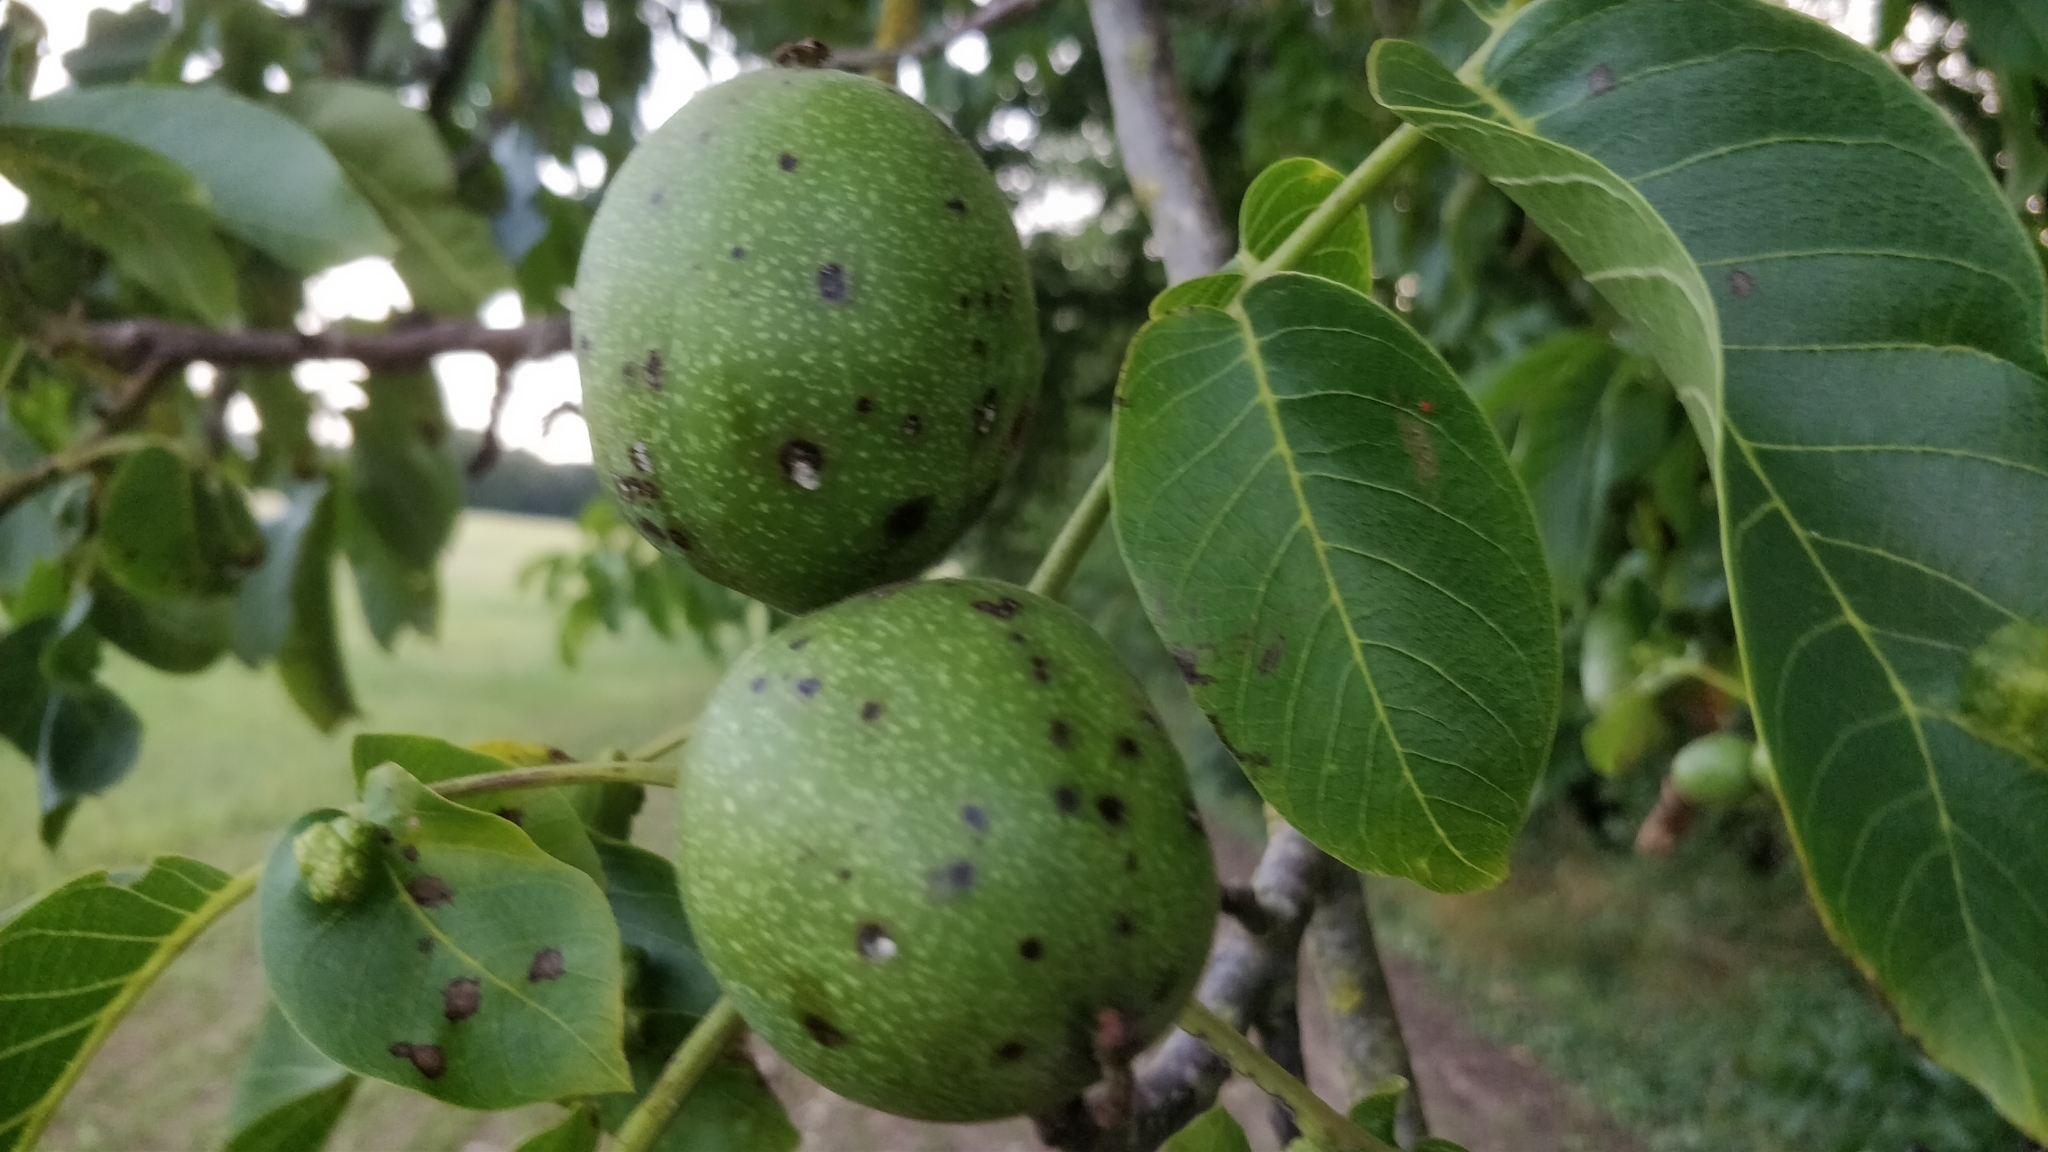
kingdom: Plantae
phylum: Tracheophyta
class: Magnoliopsida
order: Fagales
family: Juglandaceae
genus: Juglans
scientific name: Juglans regia
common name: Walnut
